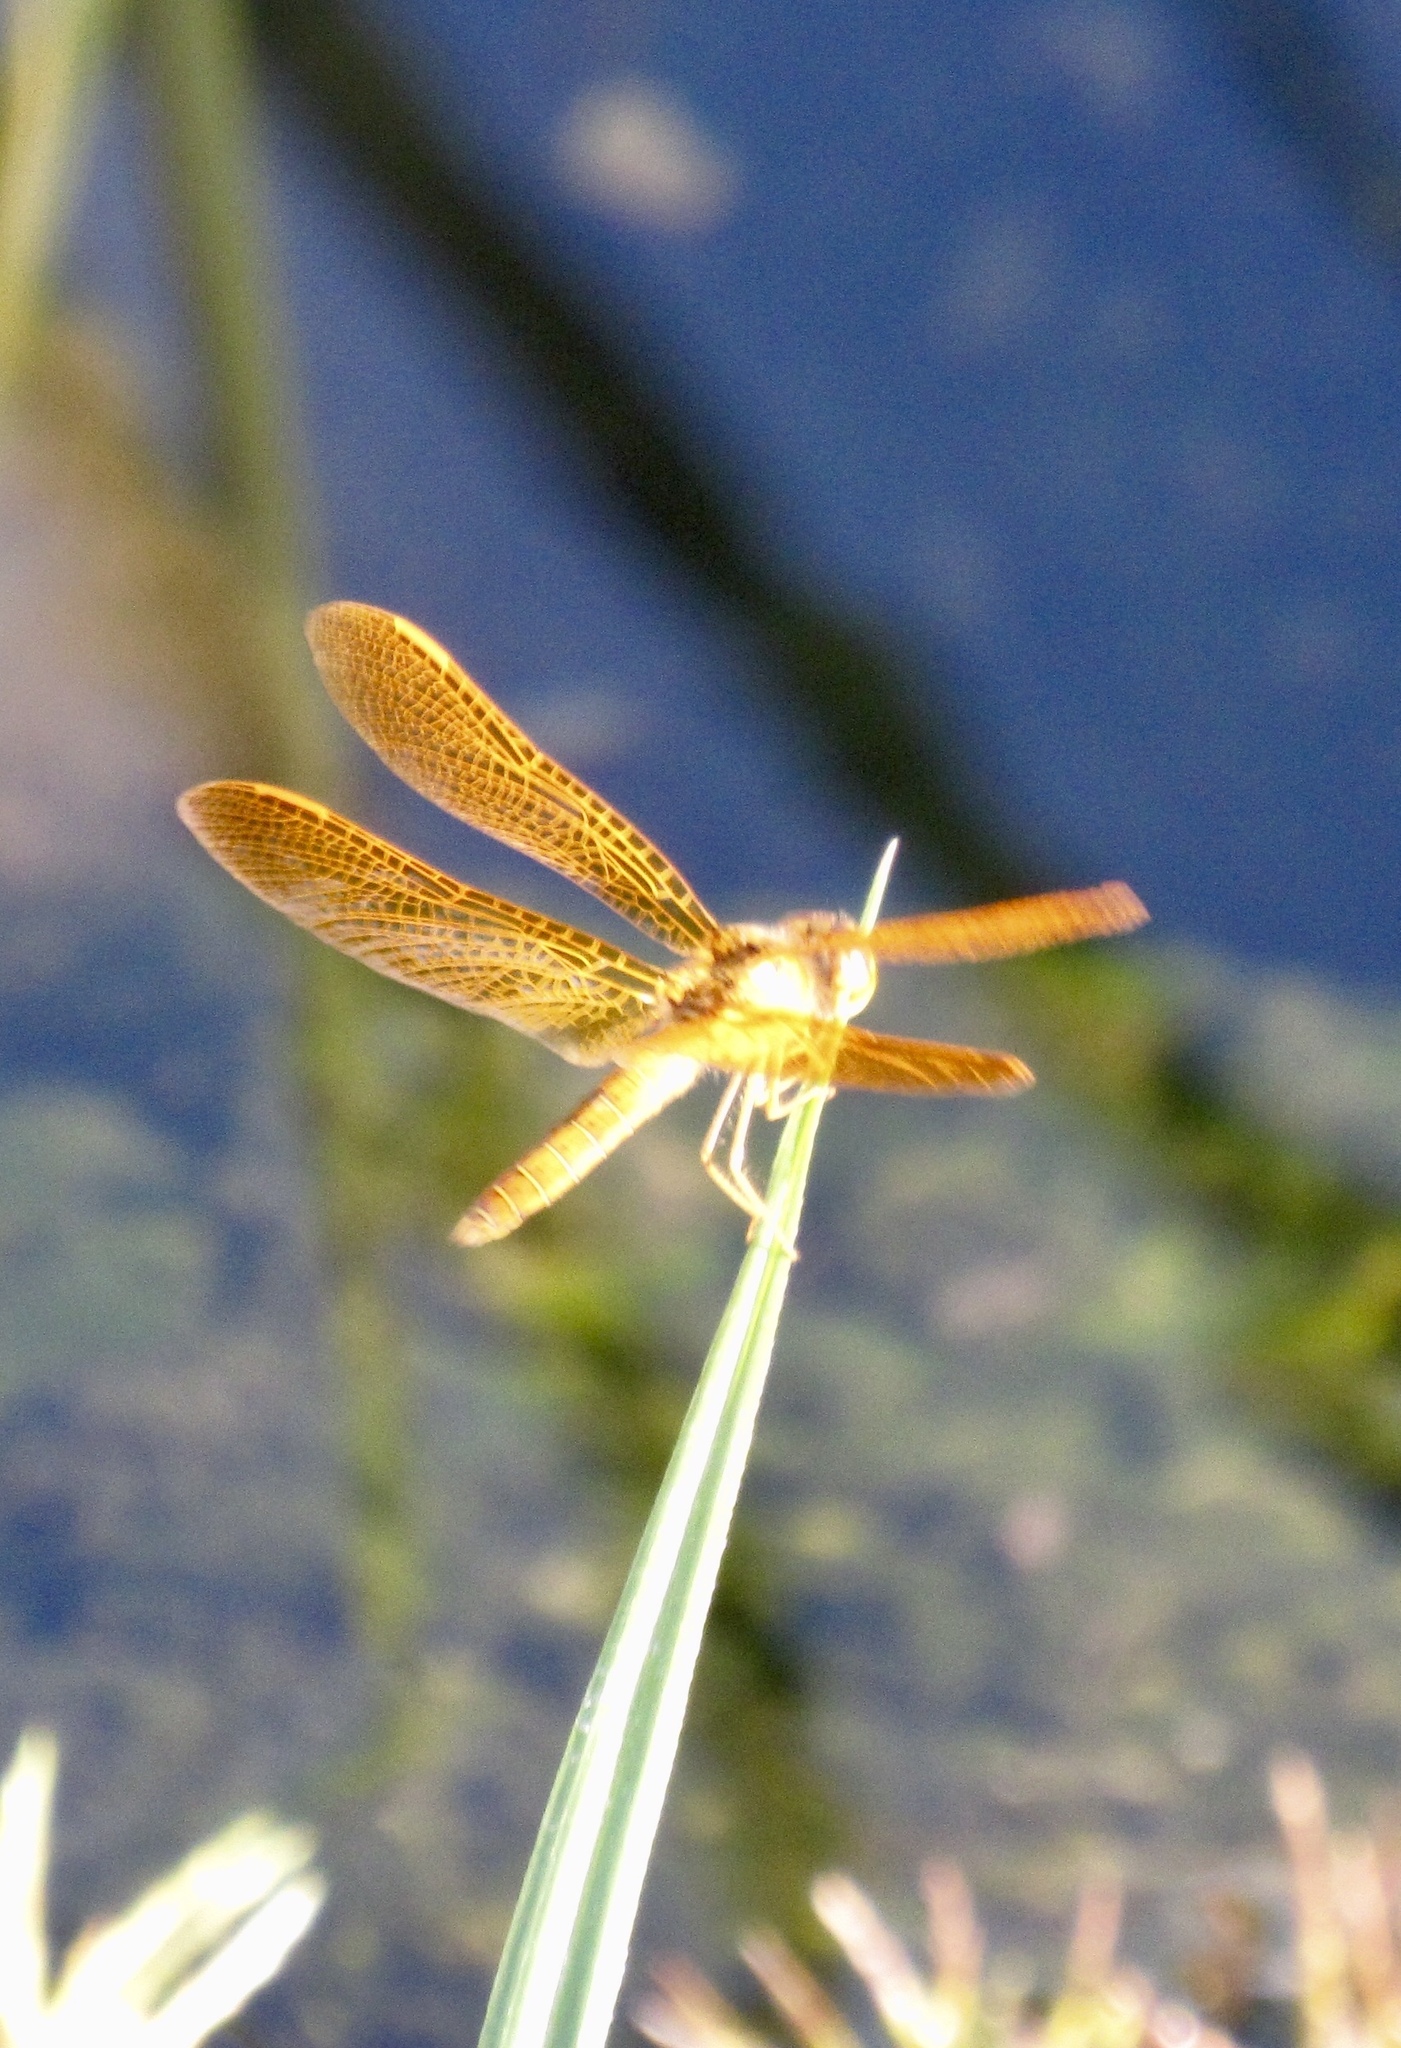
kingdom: Animalia
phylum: Arthropoda
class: Insecta
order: Odonata
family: Libellulidae
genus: Perithemis
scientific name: Perithemis intensa
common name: Mexican amberwing
